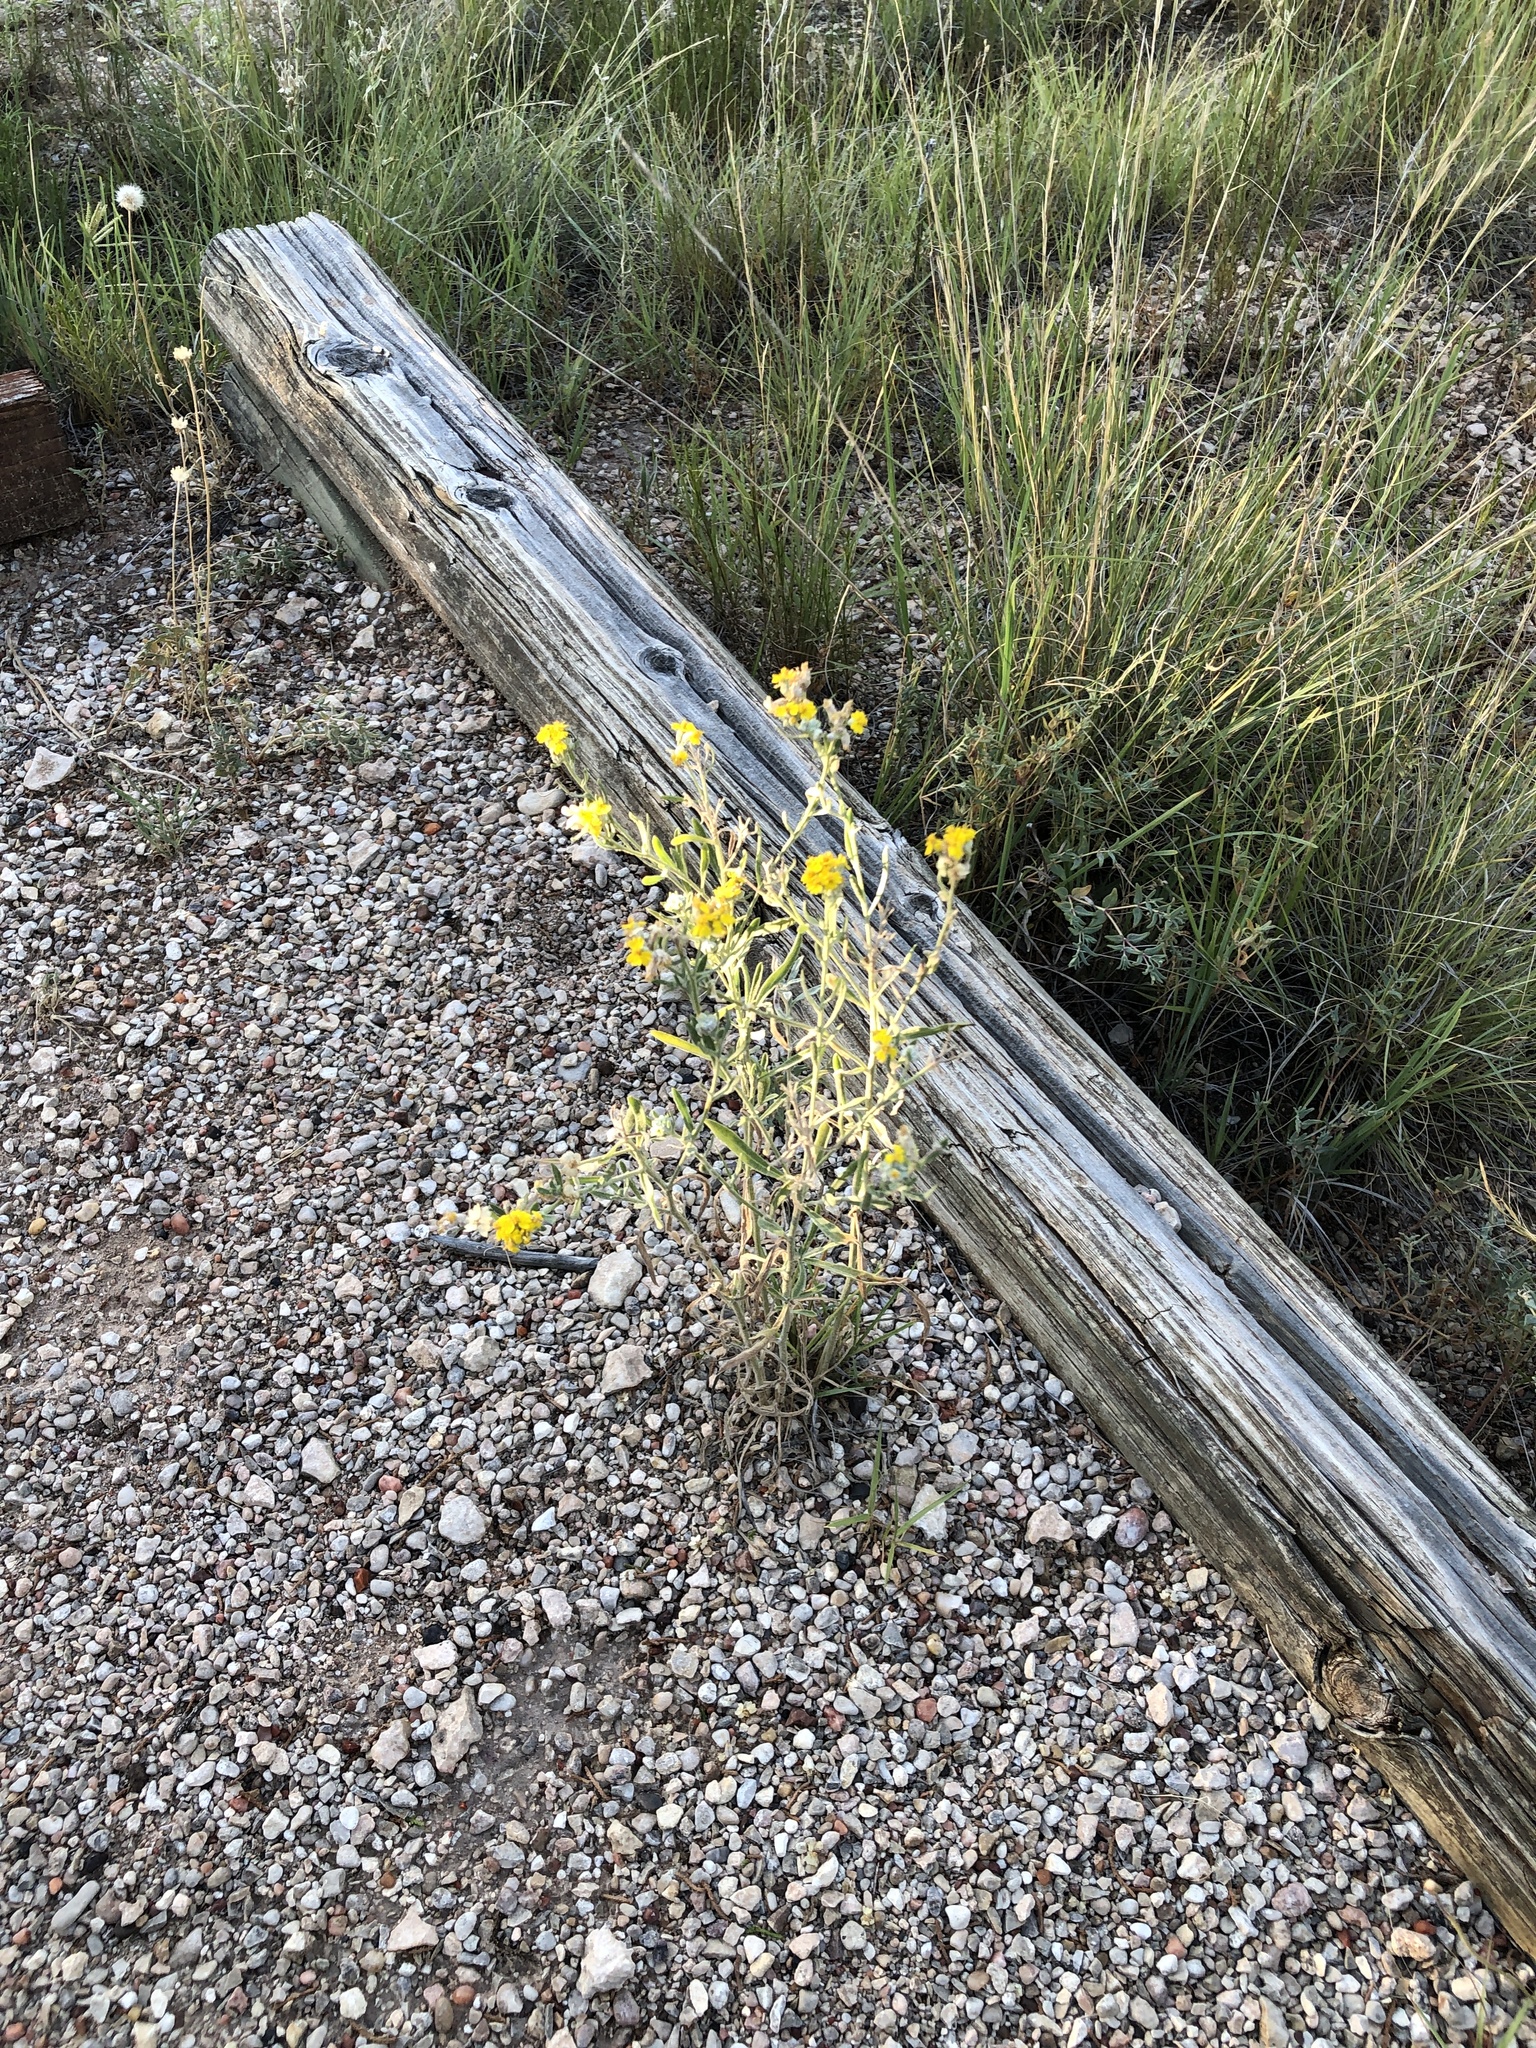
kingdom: Plantae
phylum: Tracheophyta
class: Magnoliopsida
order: Asterales
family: Asteraceae
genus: Psilostrophe
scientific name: Psilostrophe tagetina
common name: Marigold paper-flower
